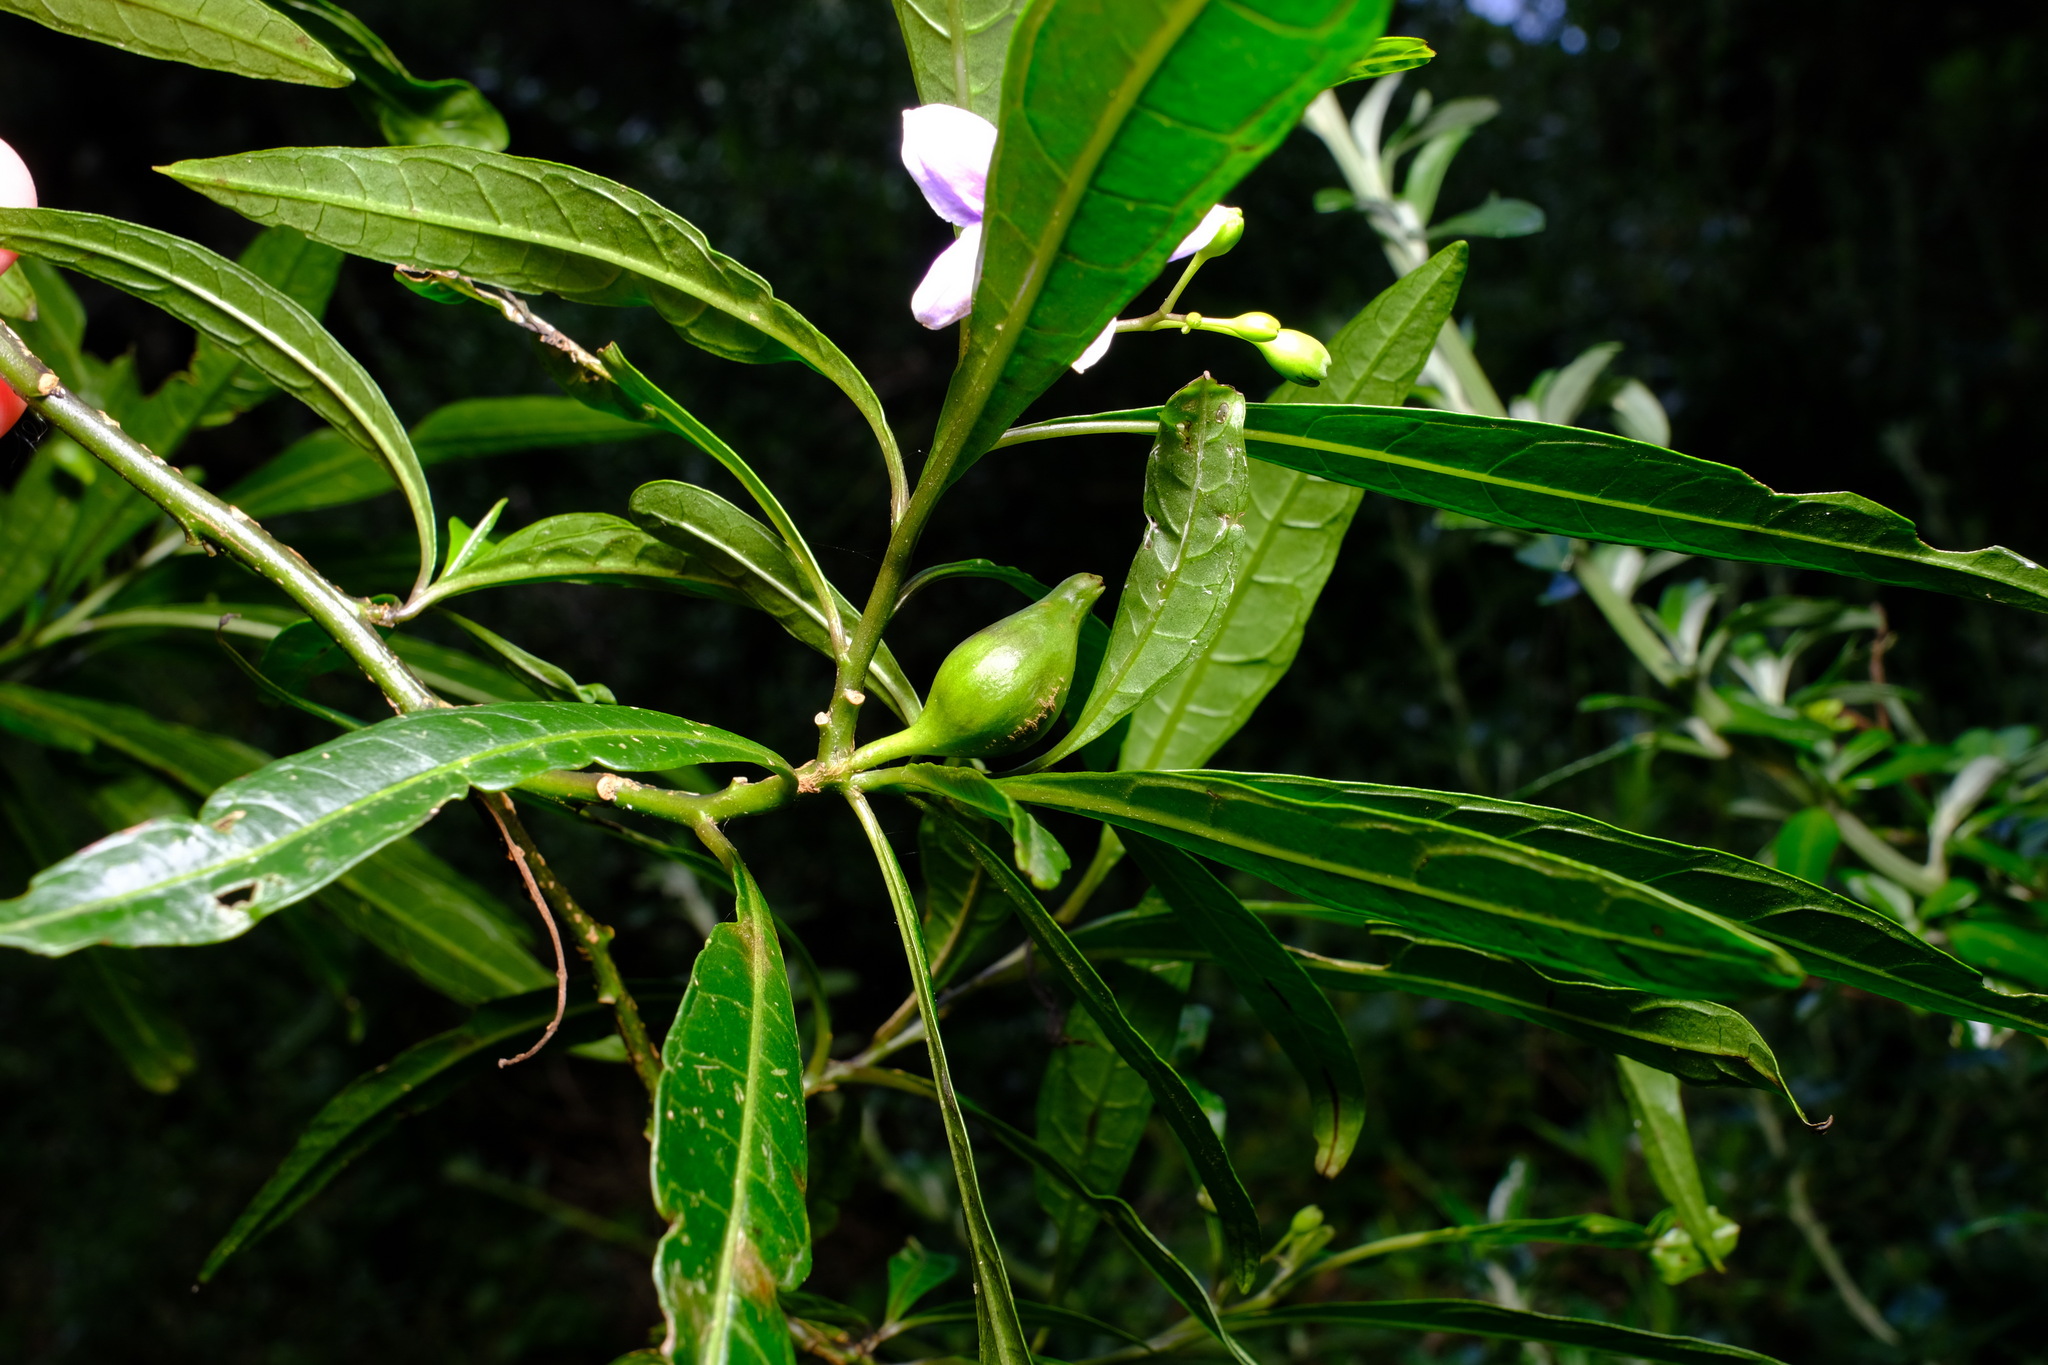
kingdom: Plantae
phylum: Tracheophyta
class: Magnoliopsida
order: Solanales
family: Solanaceae
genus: Solanum
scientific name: Solanum aviculare
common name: New zealand nightshade
